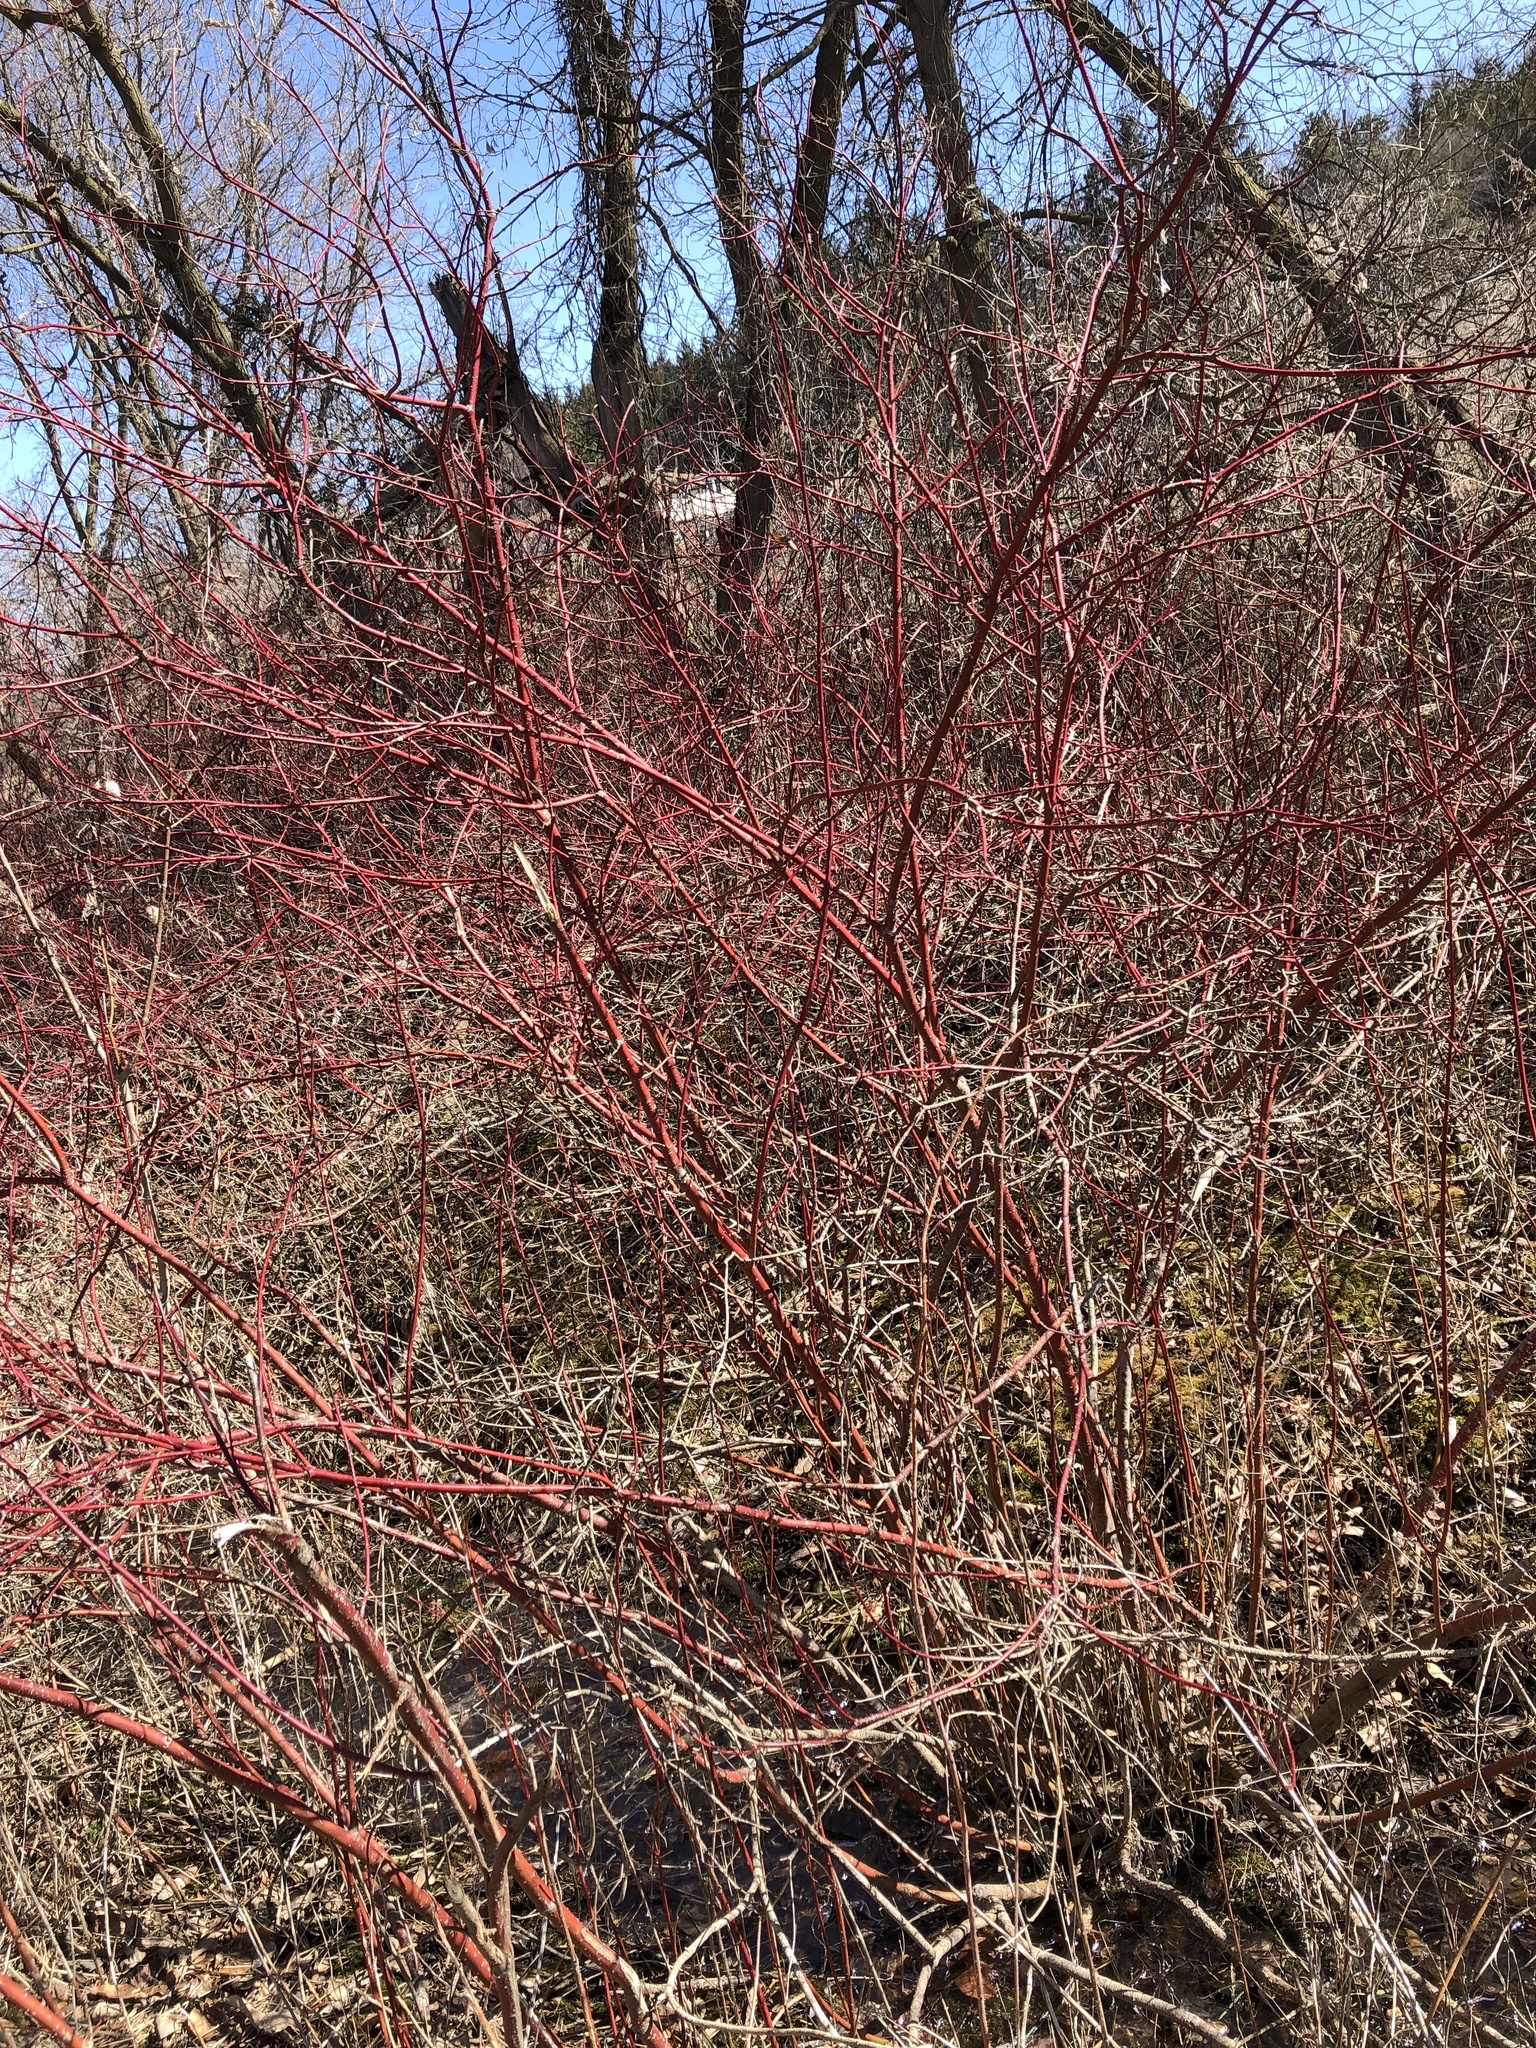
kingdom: Plantae
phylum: Tracheophyta
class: Magnoliopsida
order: Cornales
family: Cornaceae
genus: Cornus
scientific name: Cornus sericea
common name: Red-osier dogwood
